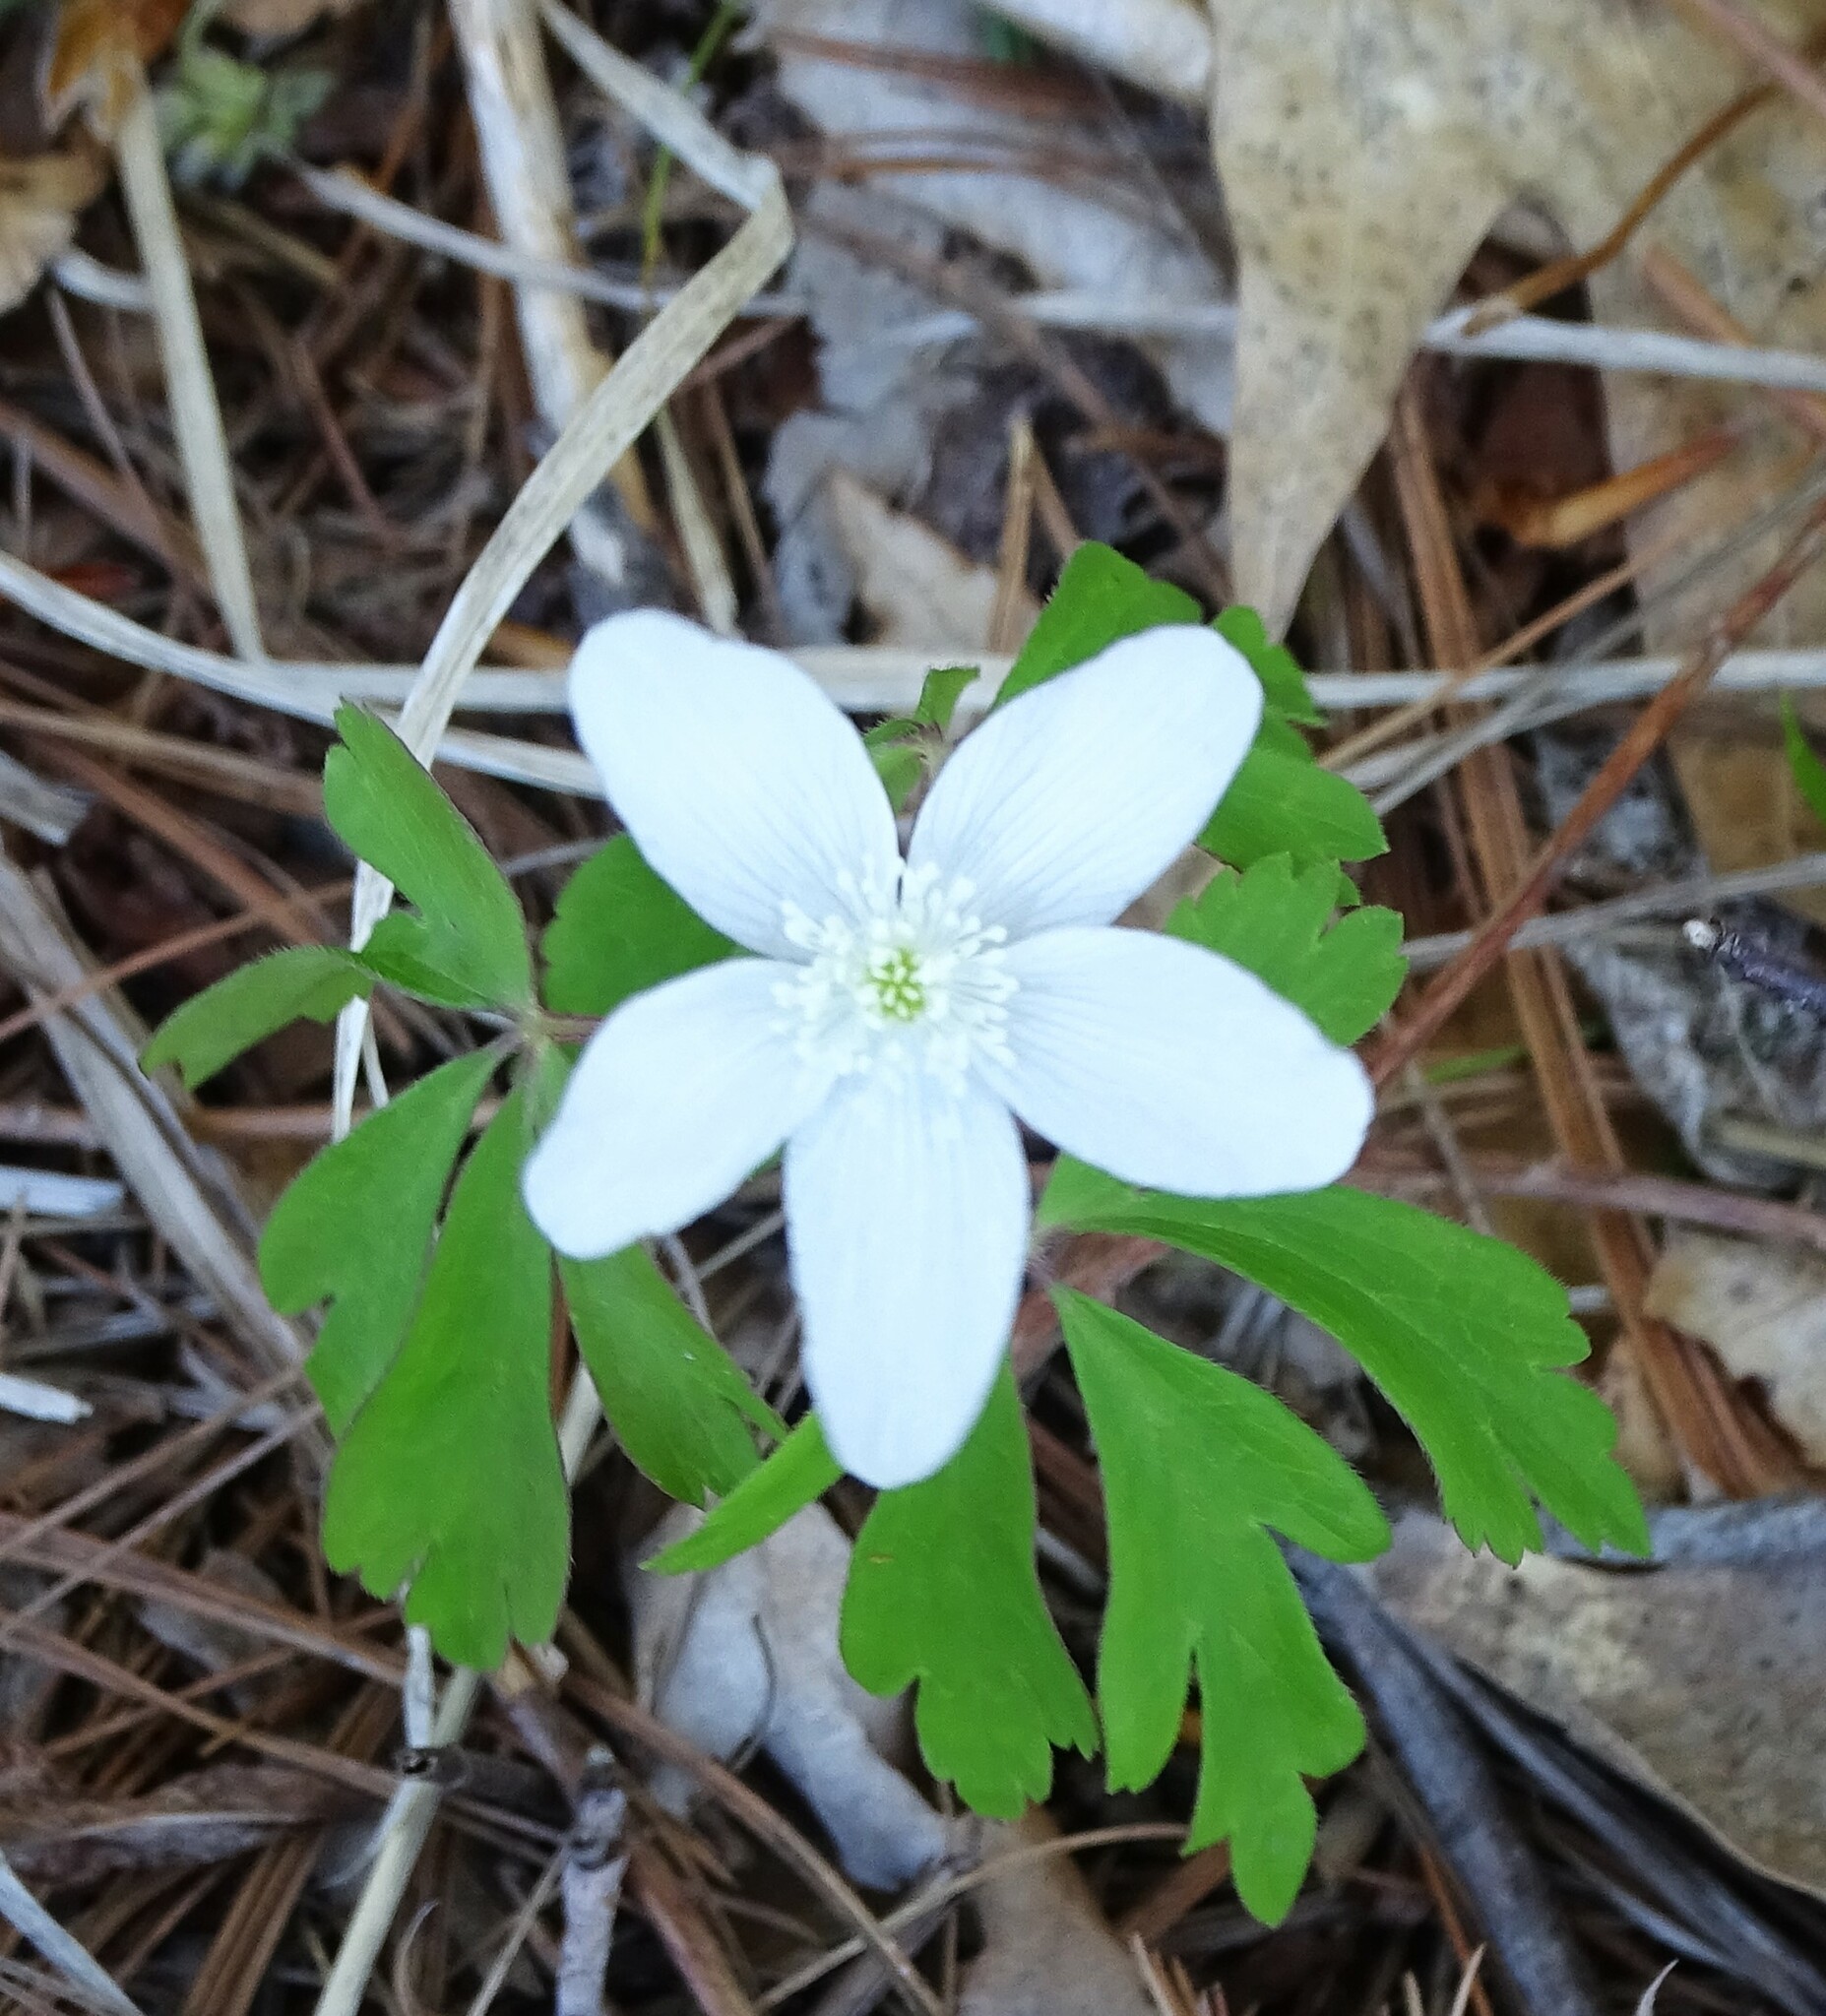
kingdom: Plantae
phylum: Tracheophyta
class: Magnoliopsida
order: Ranunculales
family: Ranunculaceae
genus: Anemone
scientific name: Anemone quinquefolia
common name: Wood anemone
